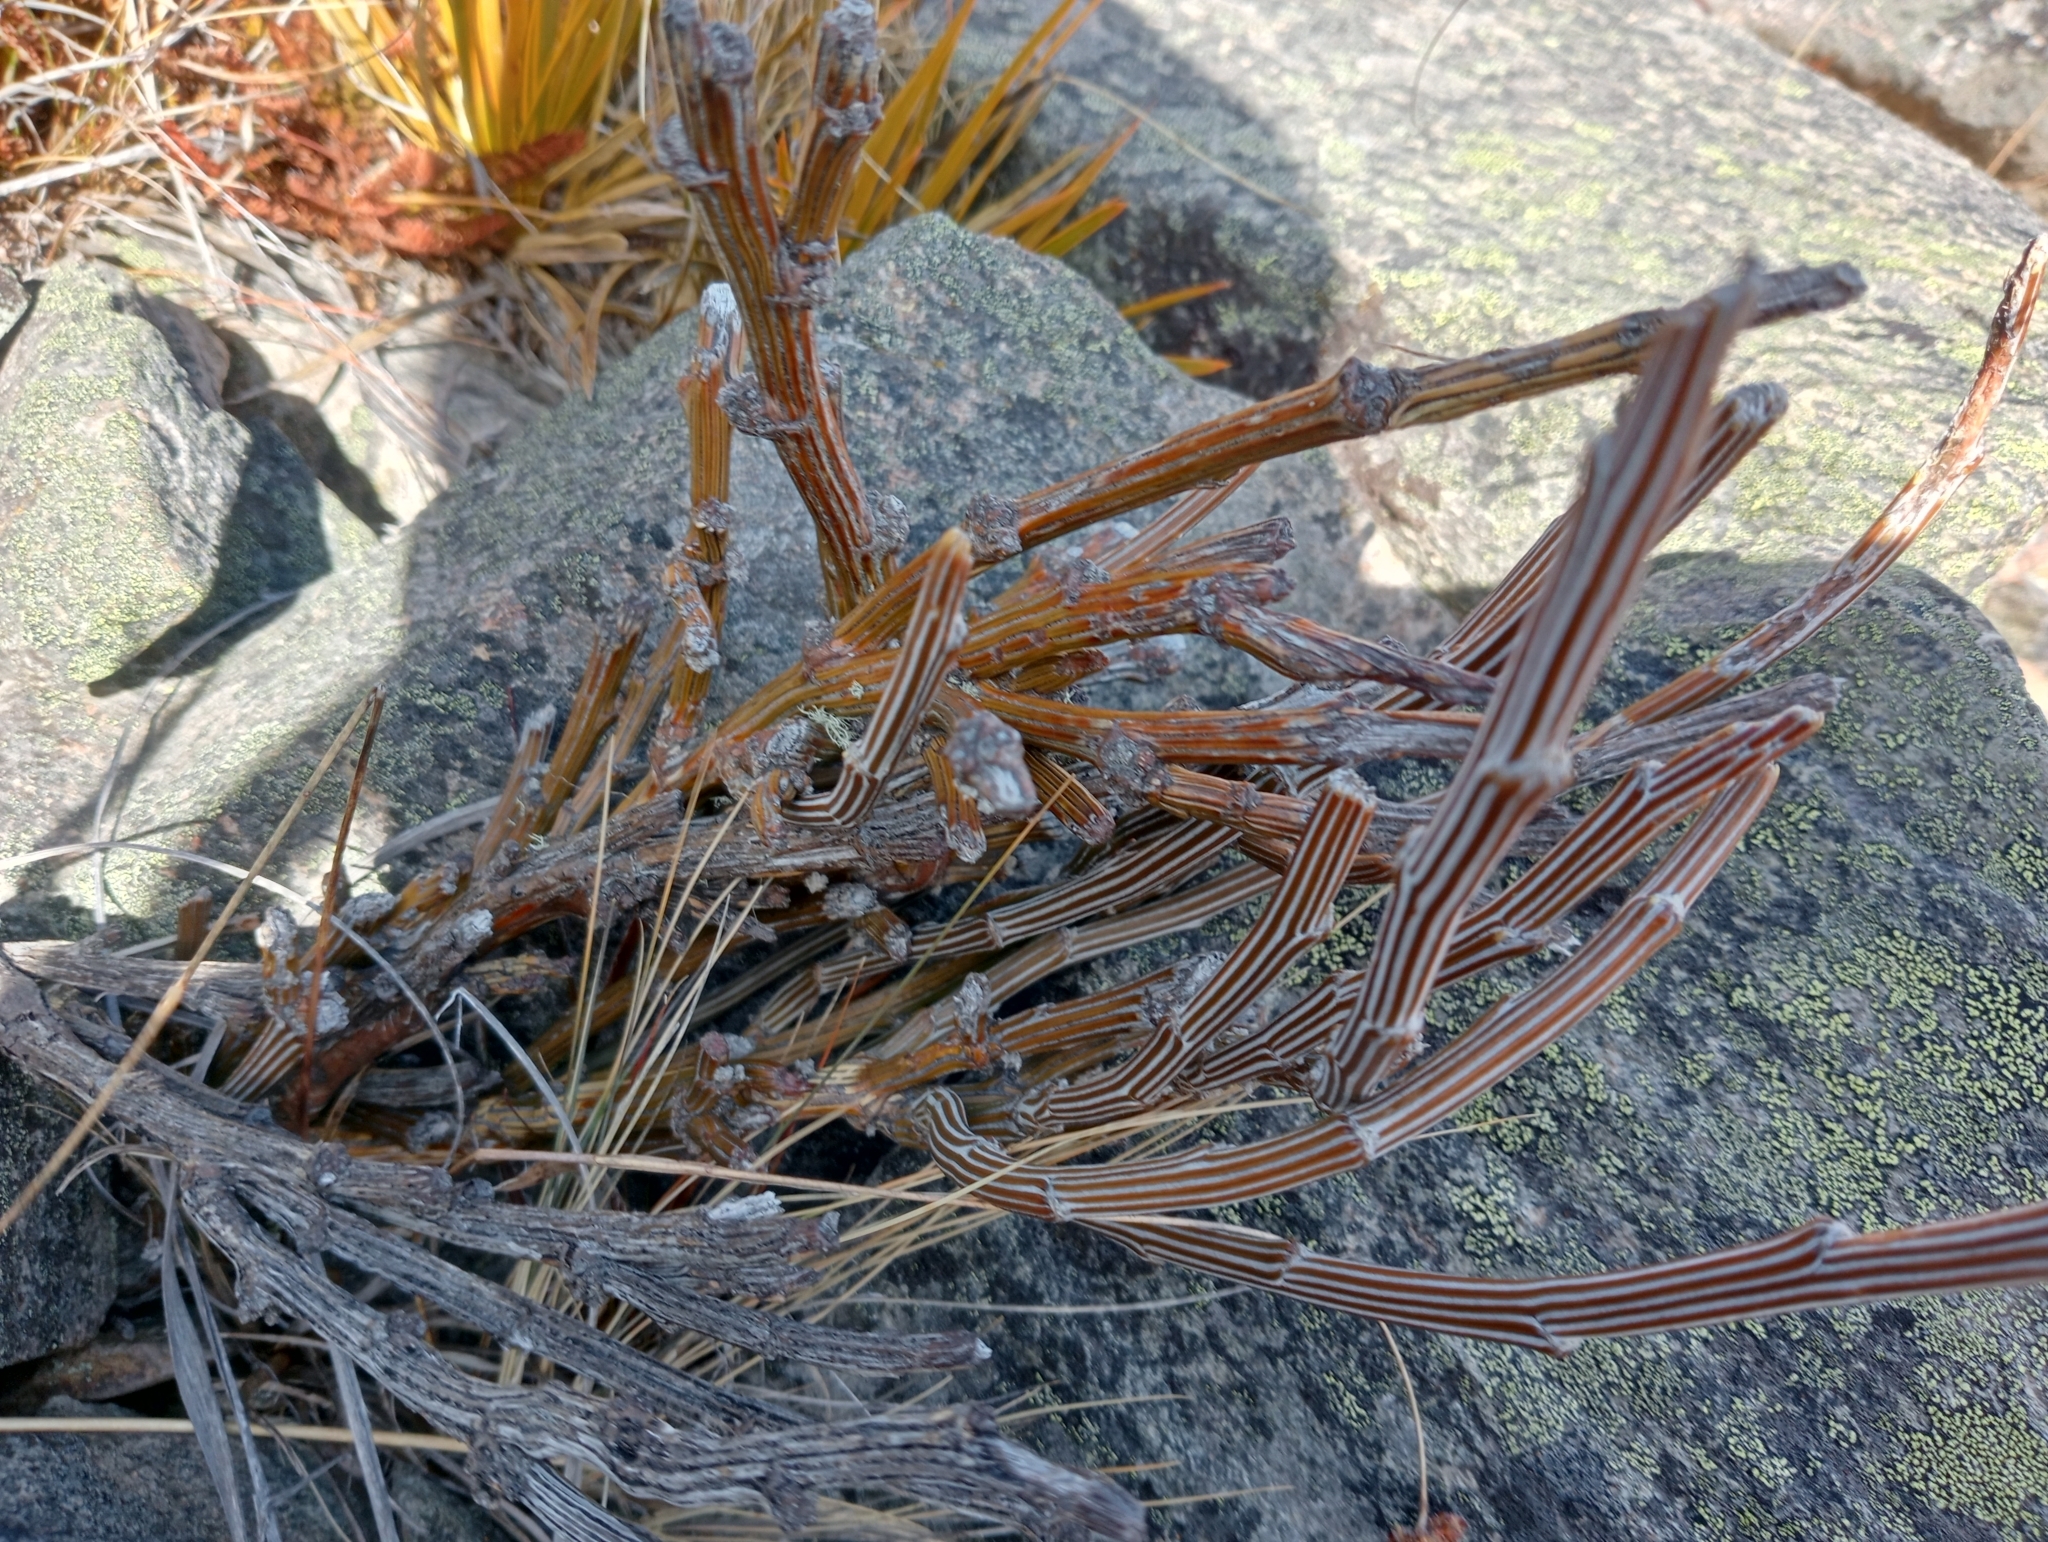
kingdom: Plantae
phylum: Tracheophyta
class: Magnoliopsida
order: Fabales
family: Fabaceae
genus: Carmichaelia
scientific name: Carmichaelia crassicaulis
